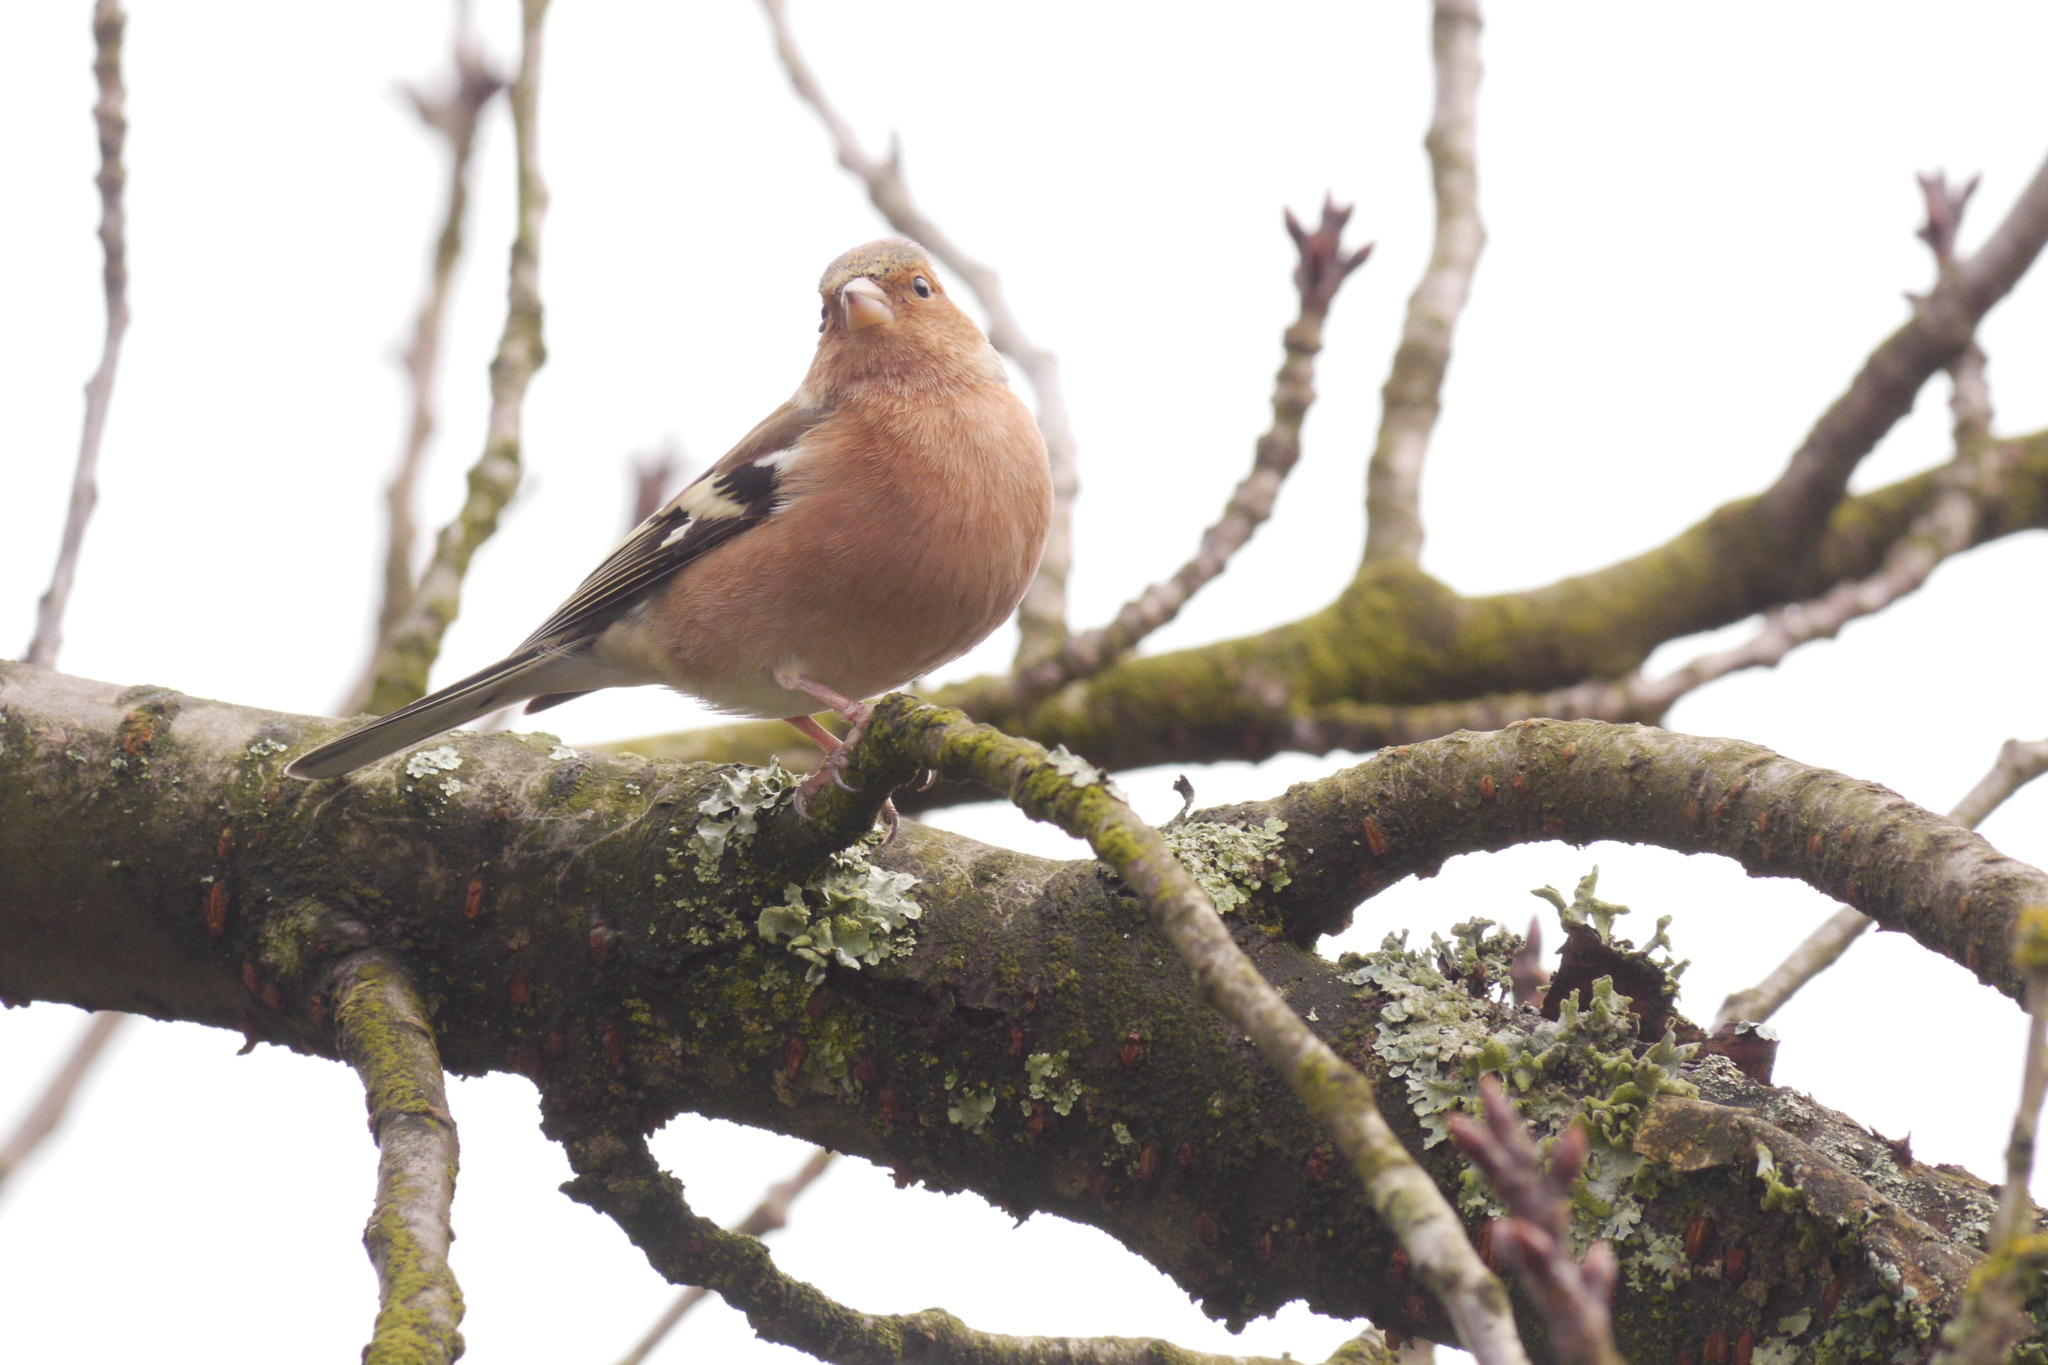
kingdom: Animalia
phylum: Chordata
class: Aves
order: Passeriformes
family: Fringillidae
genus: Fringilla
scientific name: Fringilla coelebs
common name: Common chaffinch
